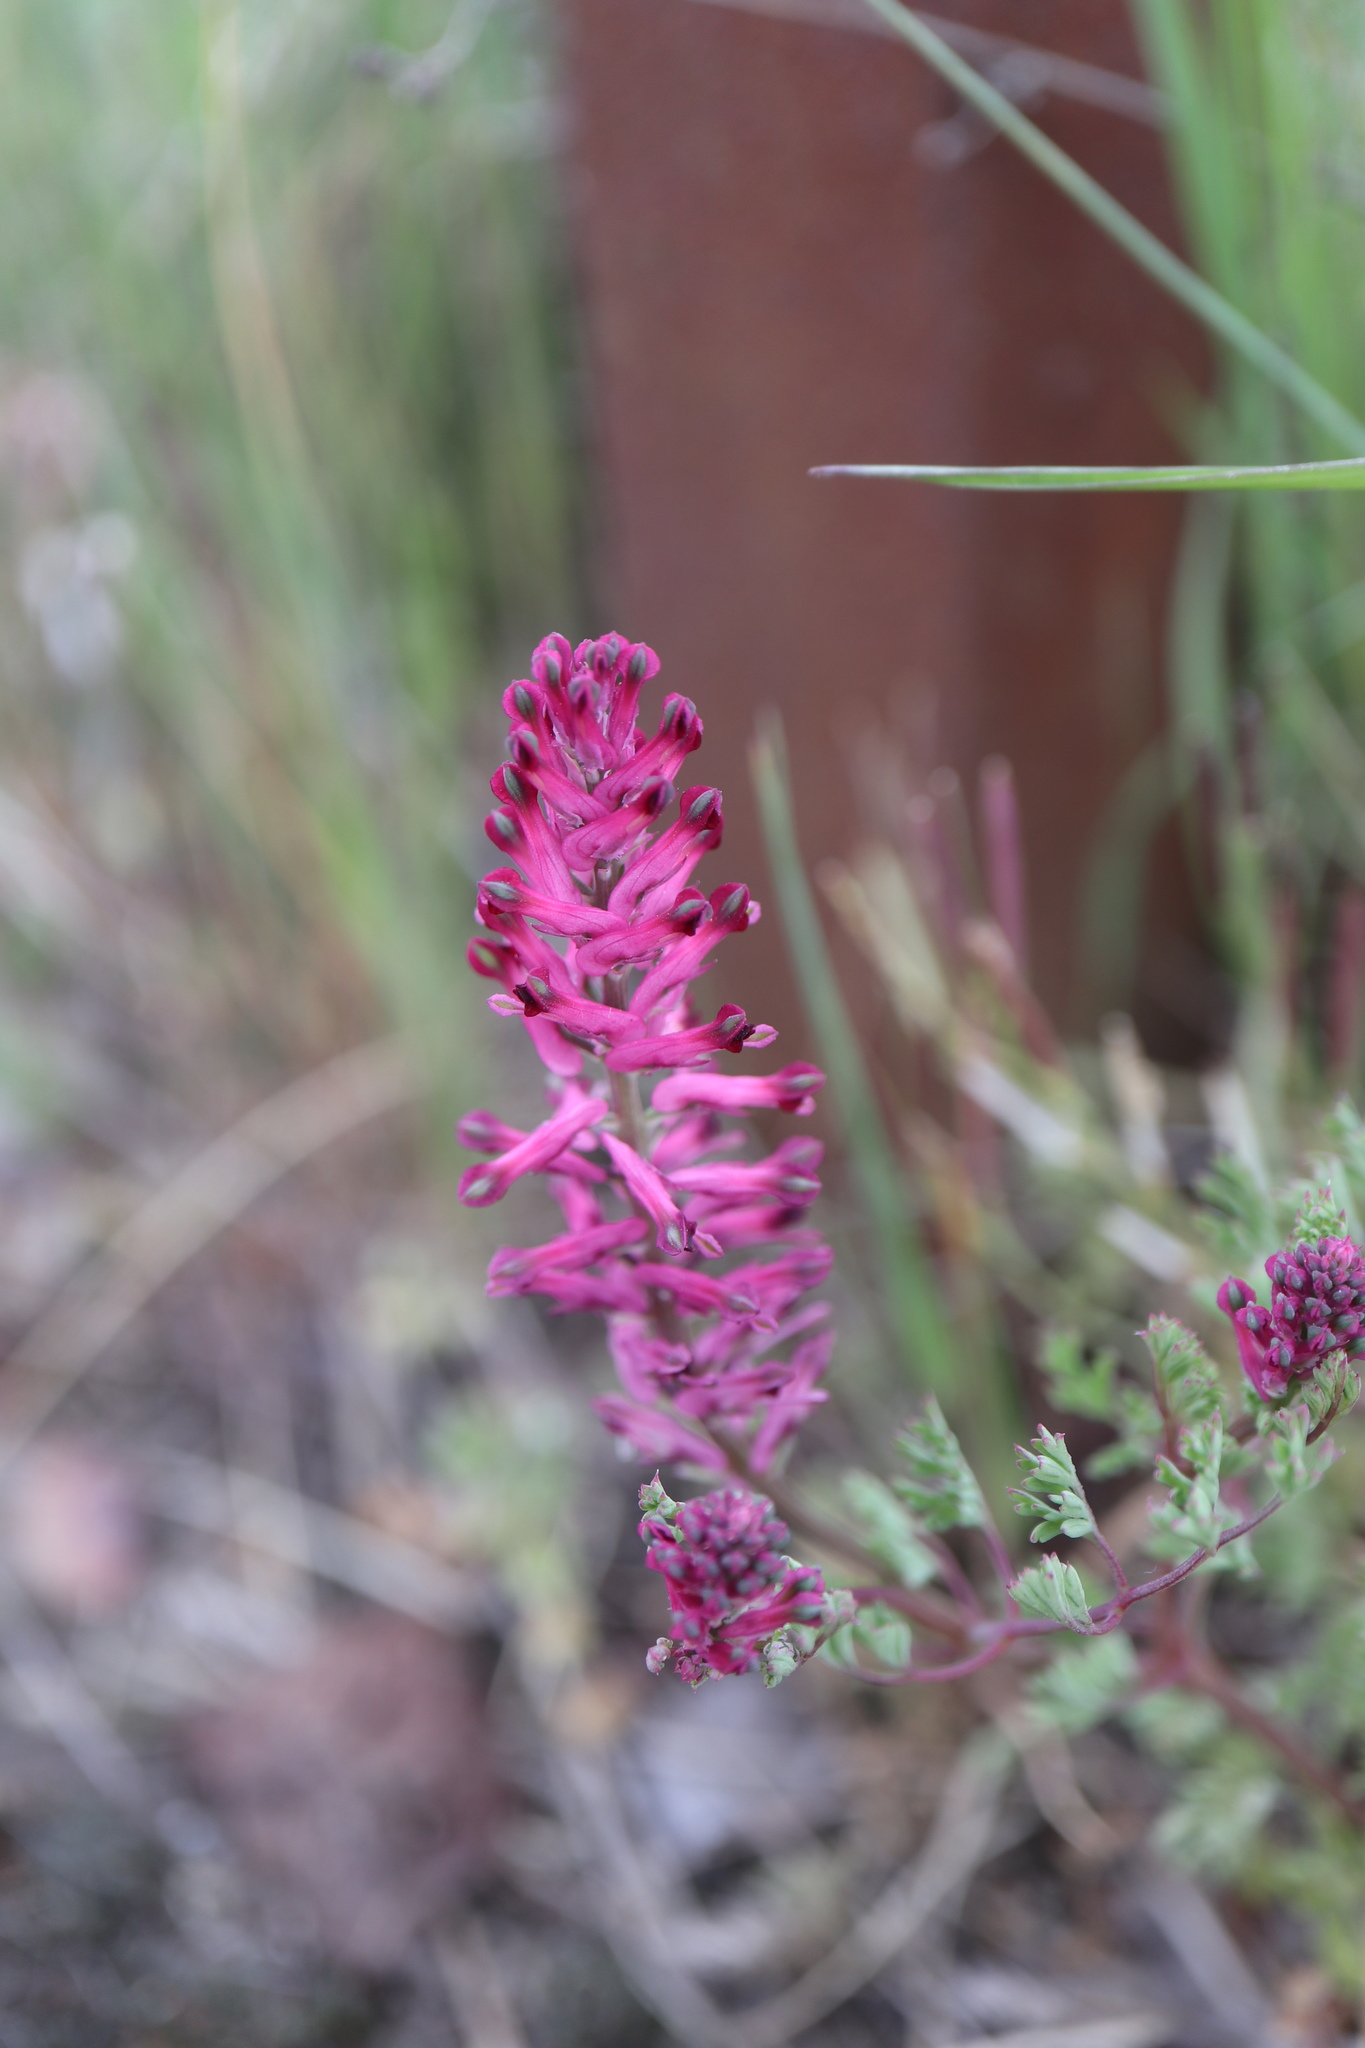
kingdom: Plantae
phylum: Tracheophyta
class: Magnoliopsida
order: Ranunculales
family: Papaveraceae
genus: Fumaria
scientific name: Fumaria officinalis
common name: Common fumitory
